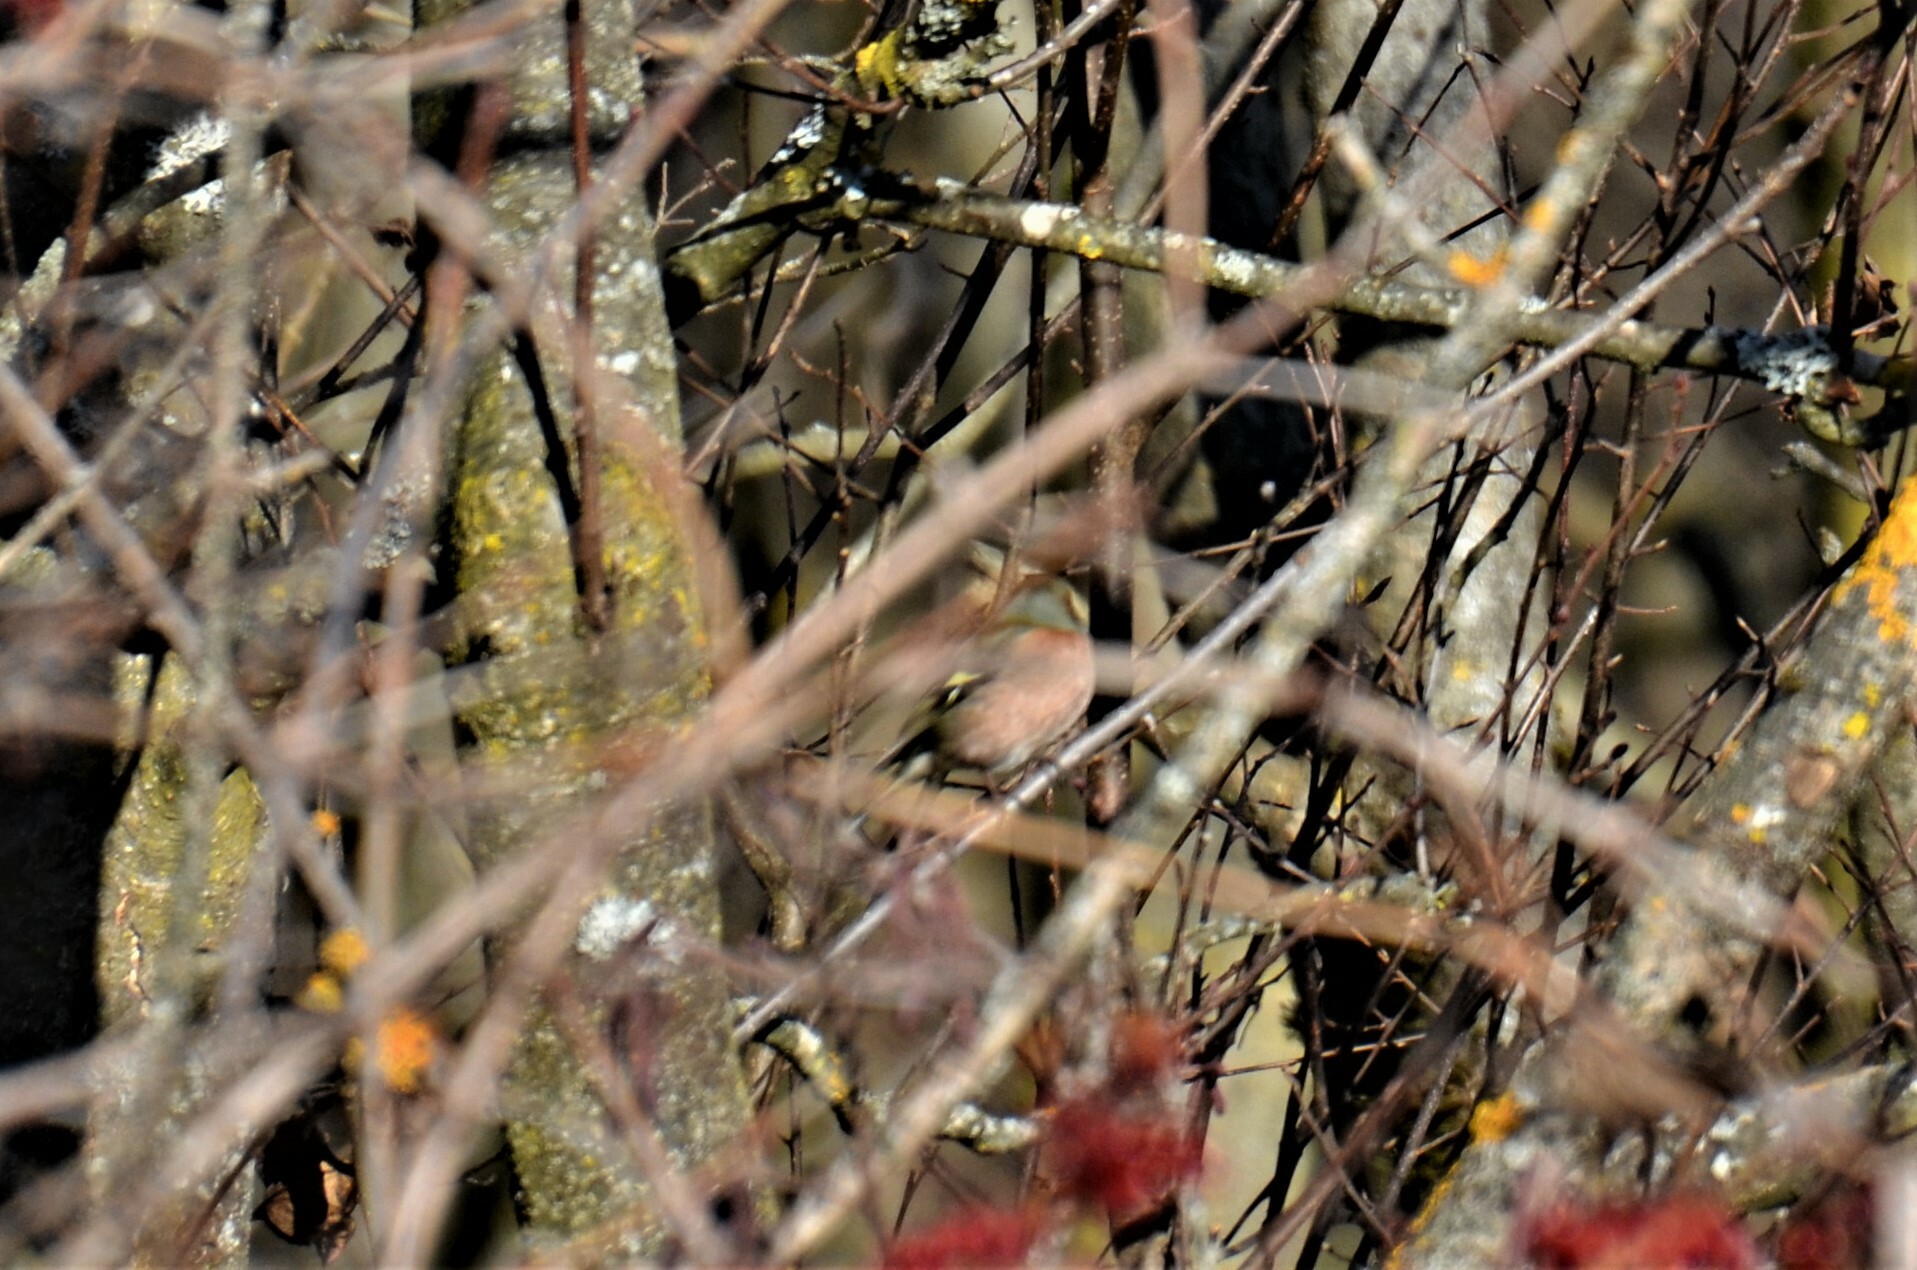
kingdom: Animalia
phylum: Chordata
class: Aves
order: Passeriformes
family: Fringillidae
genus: Fringilla
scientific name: Fringilla coelebs
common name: Common chaffinch
